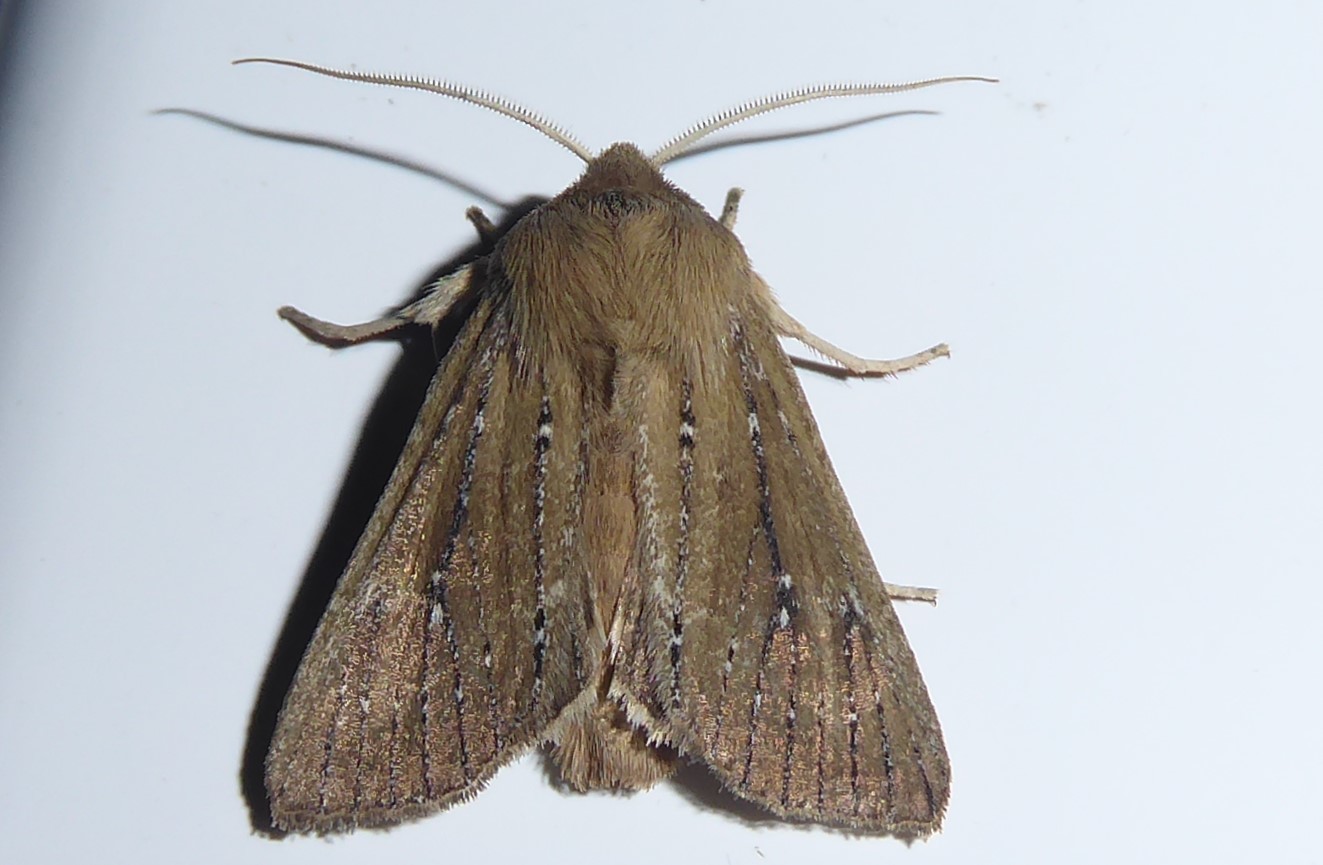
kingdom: Animalia
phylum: Arthropoda
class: Insecta
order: Lepidoptera
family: Noctuidae
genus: Ichneutica
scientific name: Ichneutica
